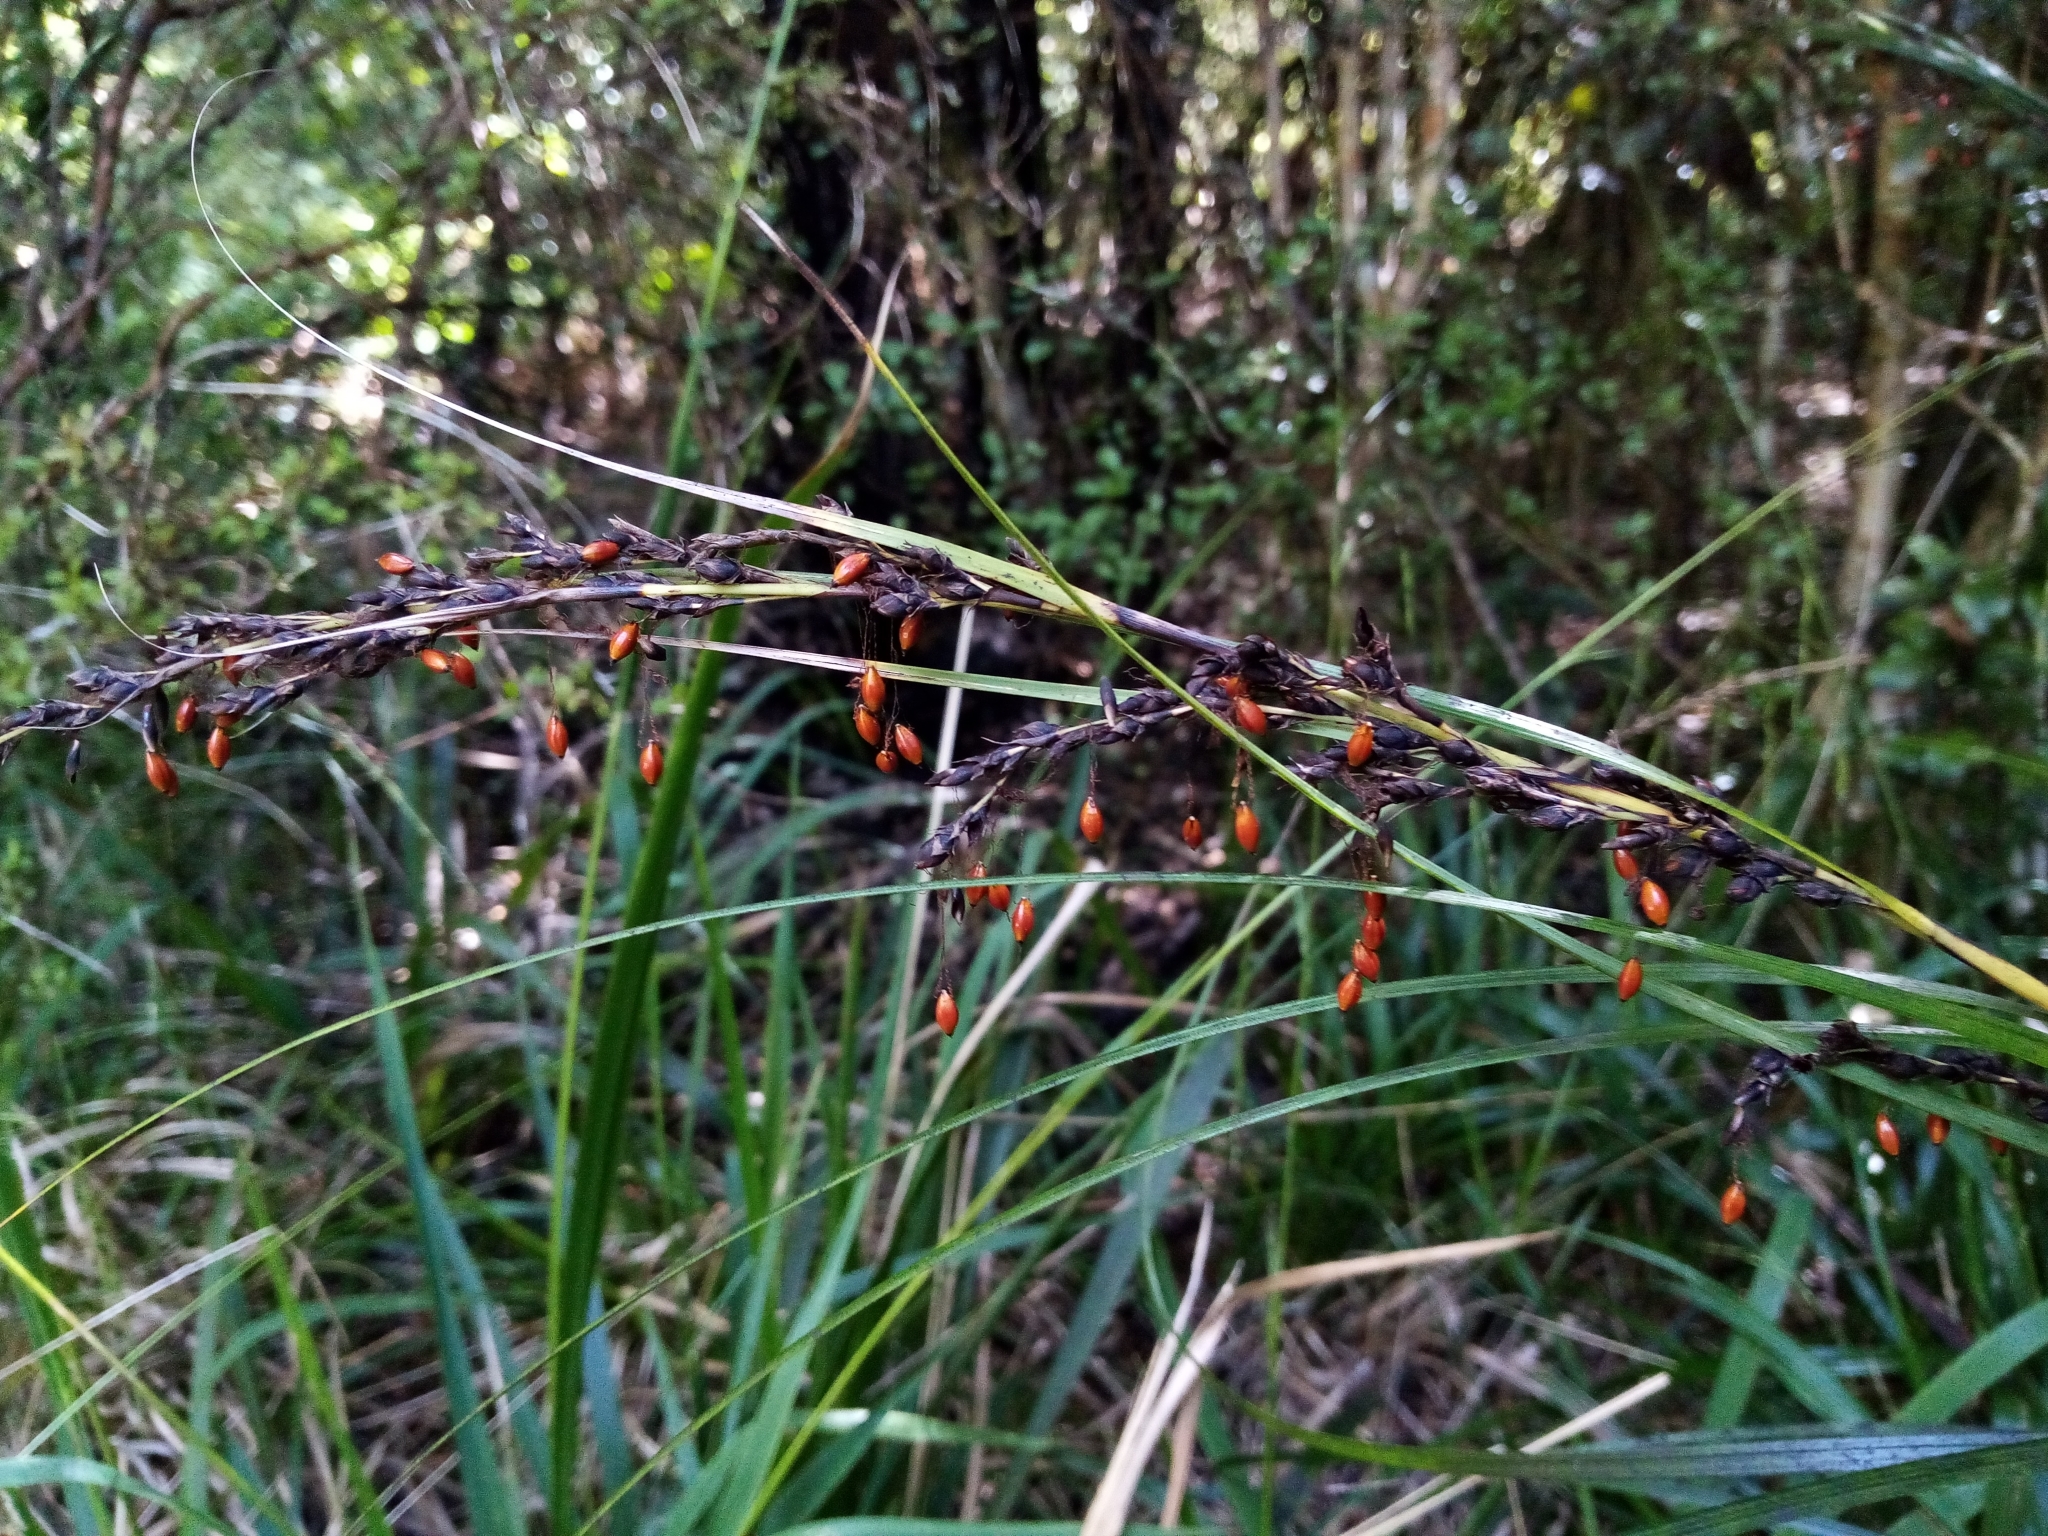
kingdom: Plantae
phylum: Tracheophyta
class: Liliopsida
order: Poales
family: Cyperaceae
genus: Gahnia
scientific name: Gahnia pauciflora
